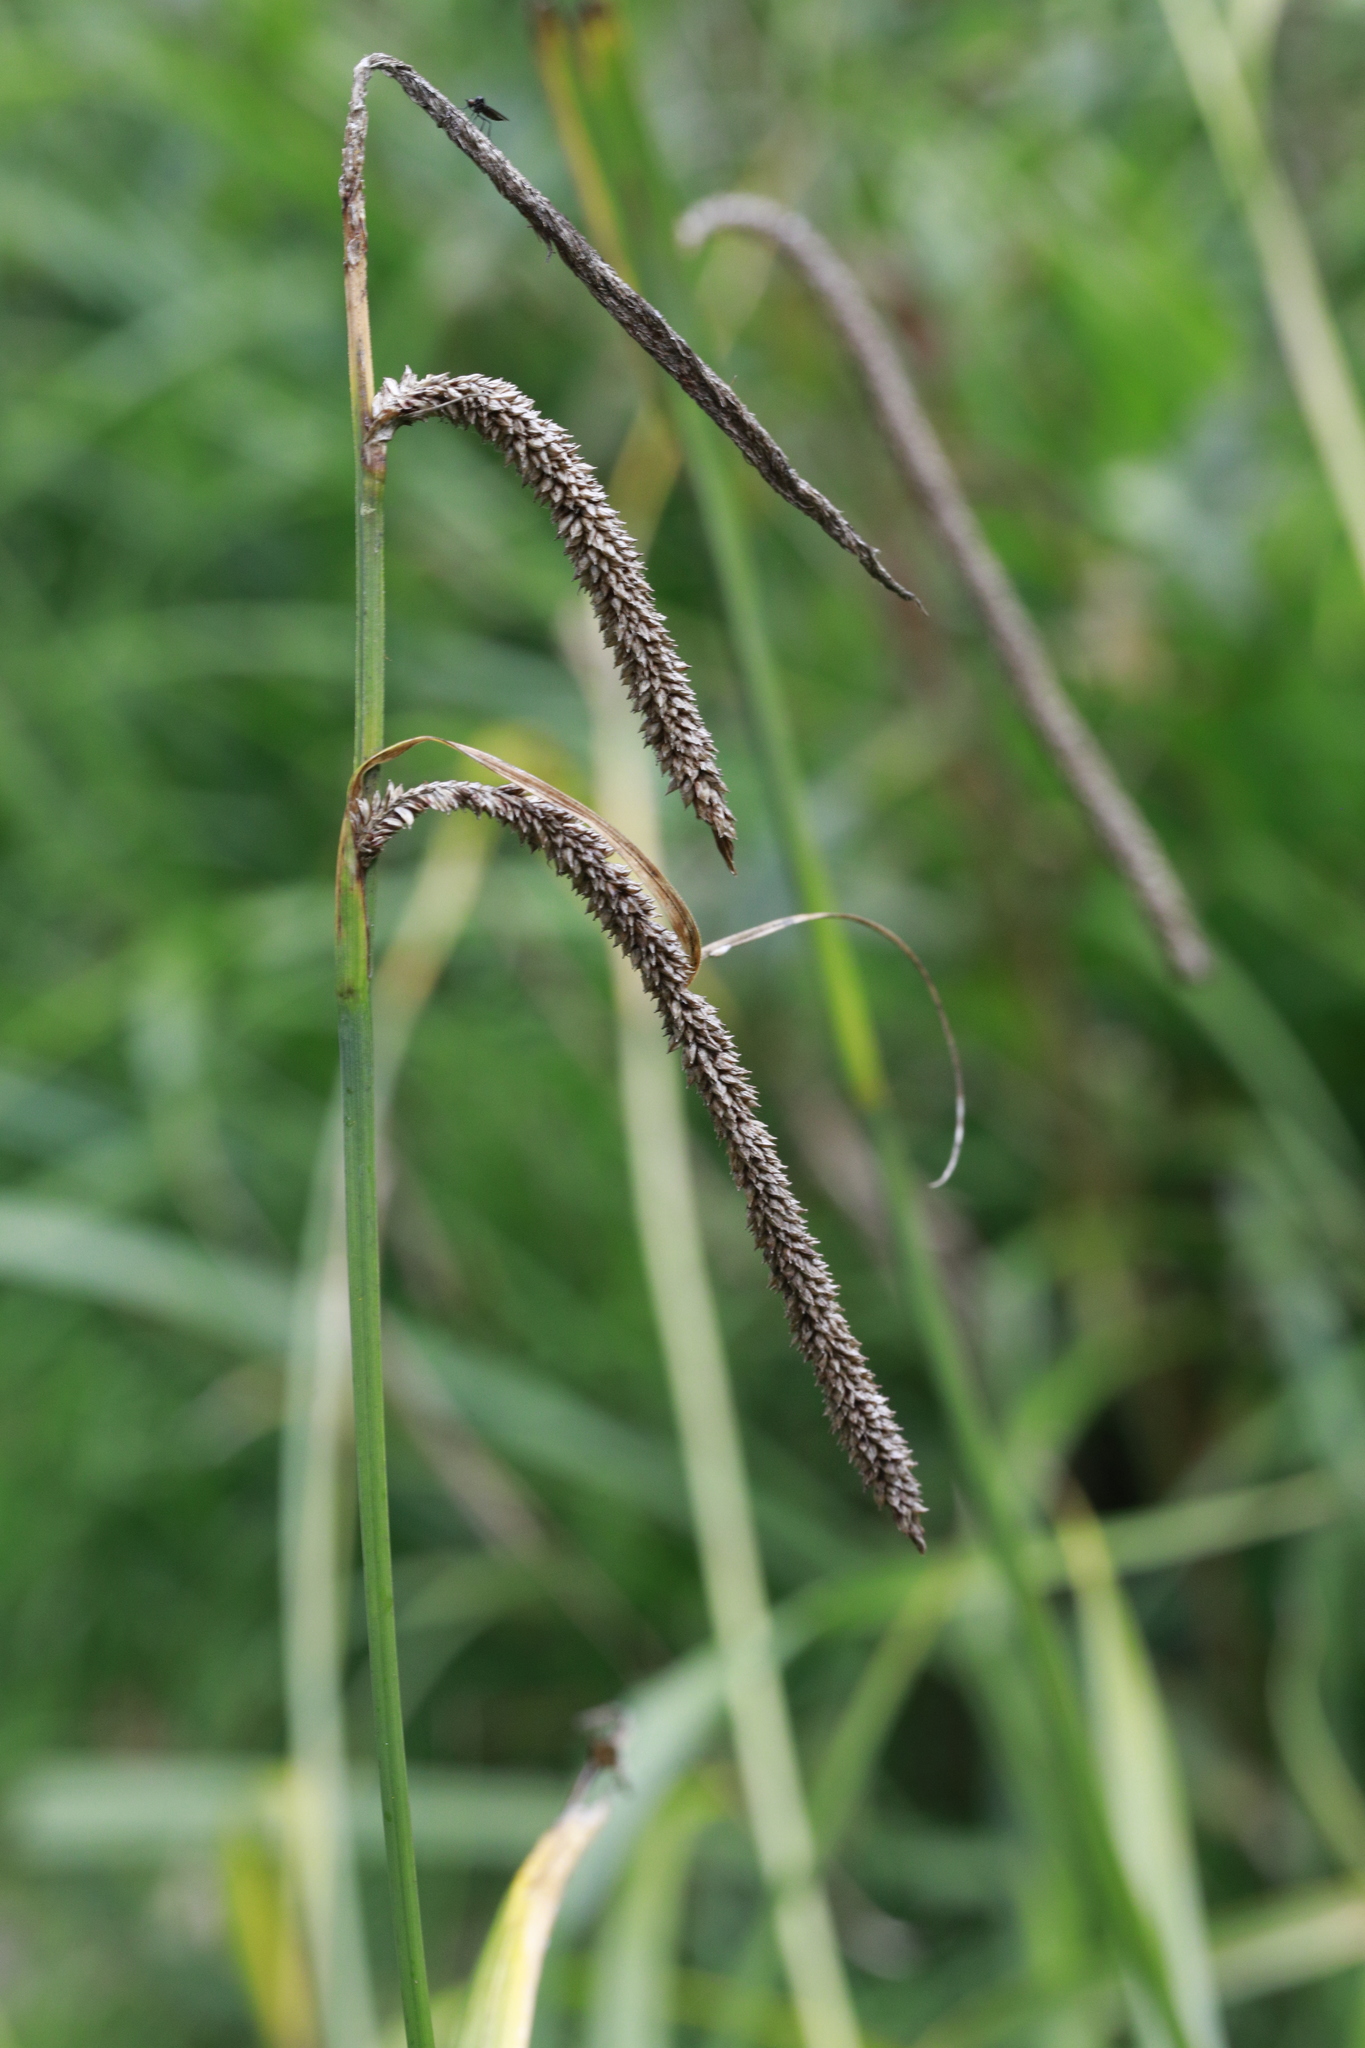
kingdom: Plantae
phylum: Tracheophyta
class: Liliopsida
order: Poales
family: Cyperaceae
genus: Carex
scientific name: Carex pendula
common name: Pendulous sedge
